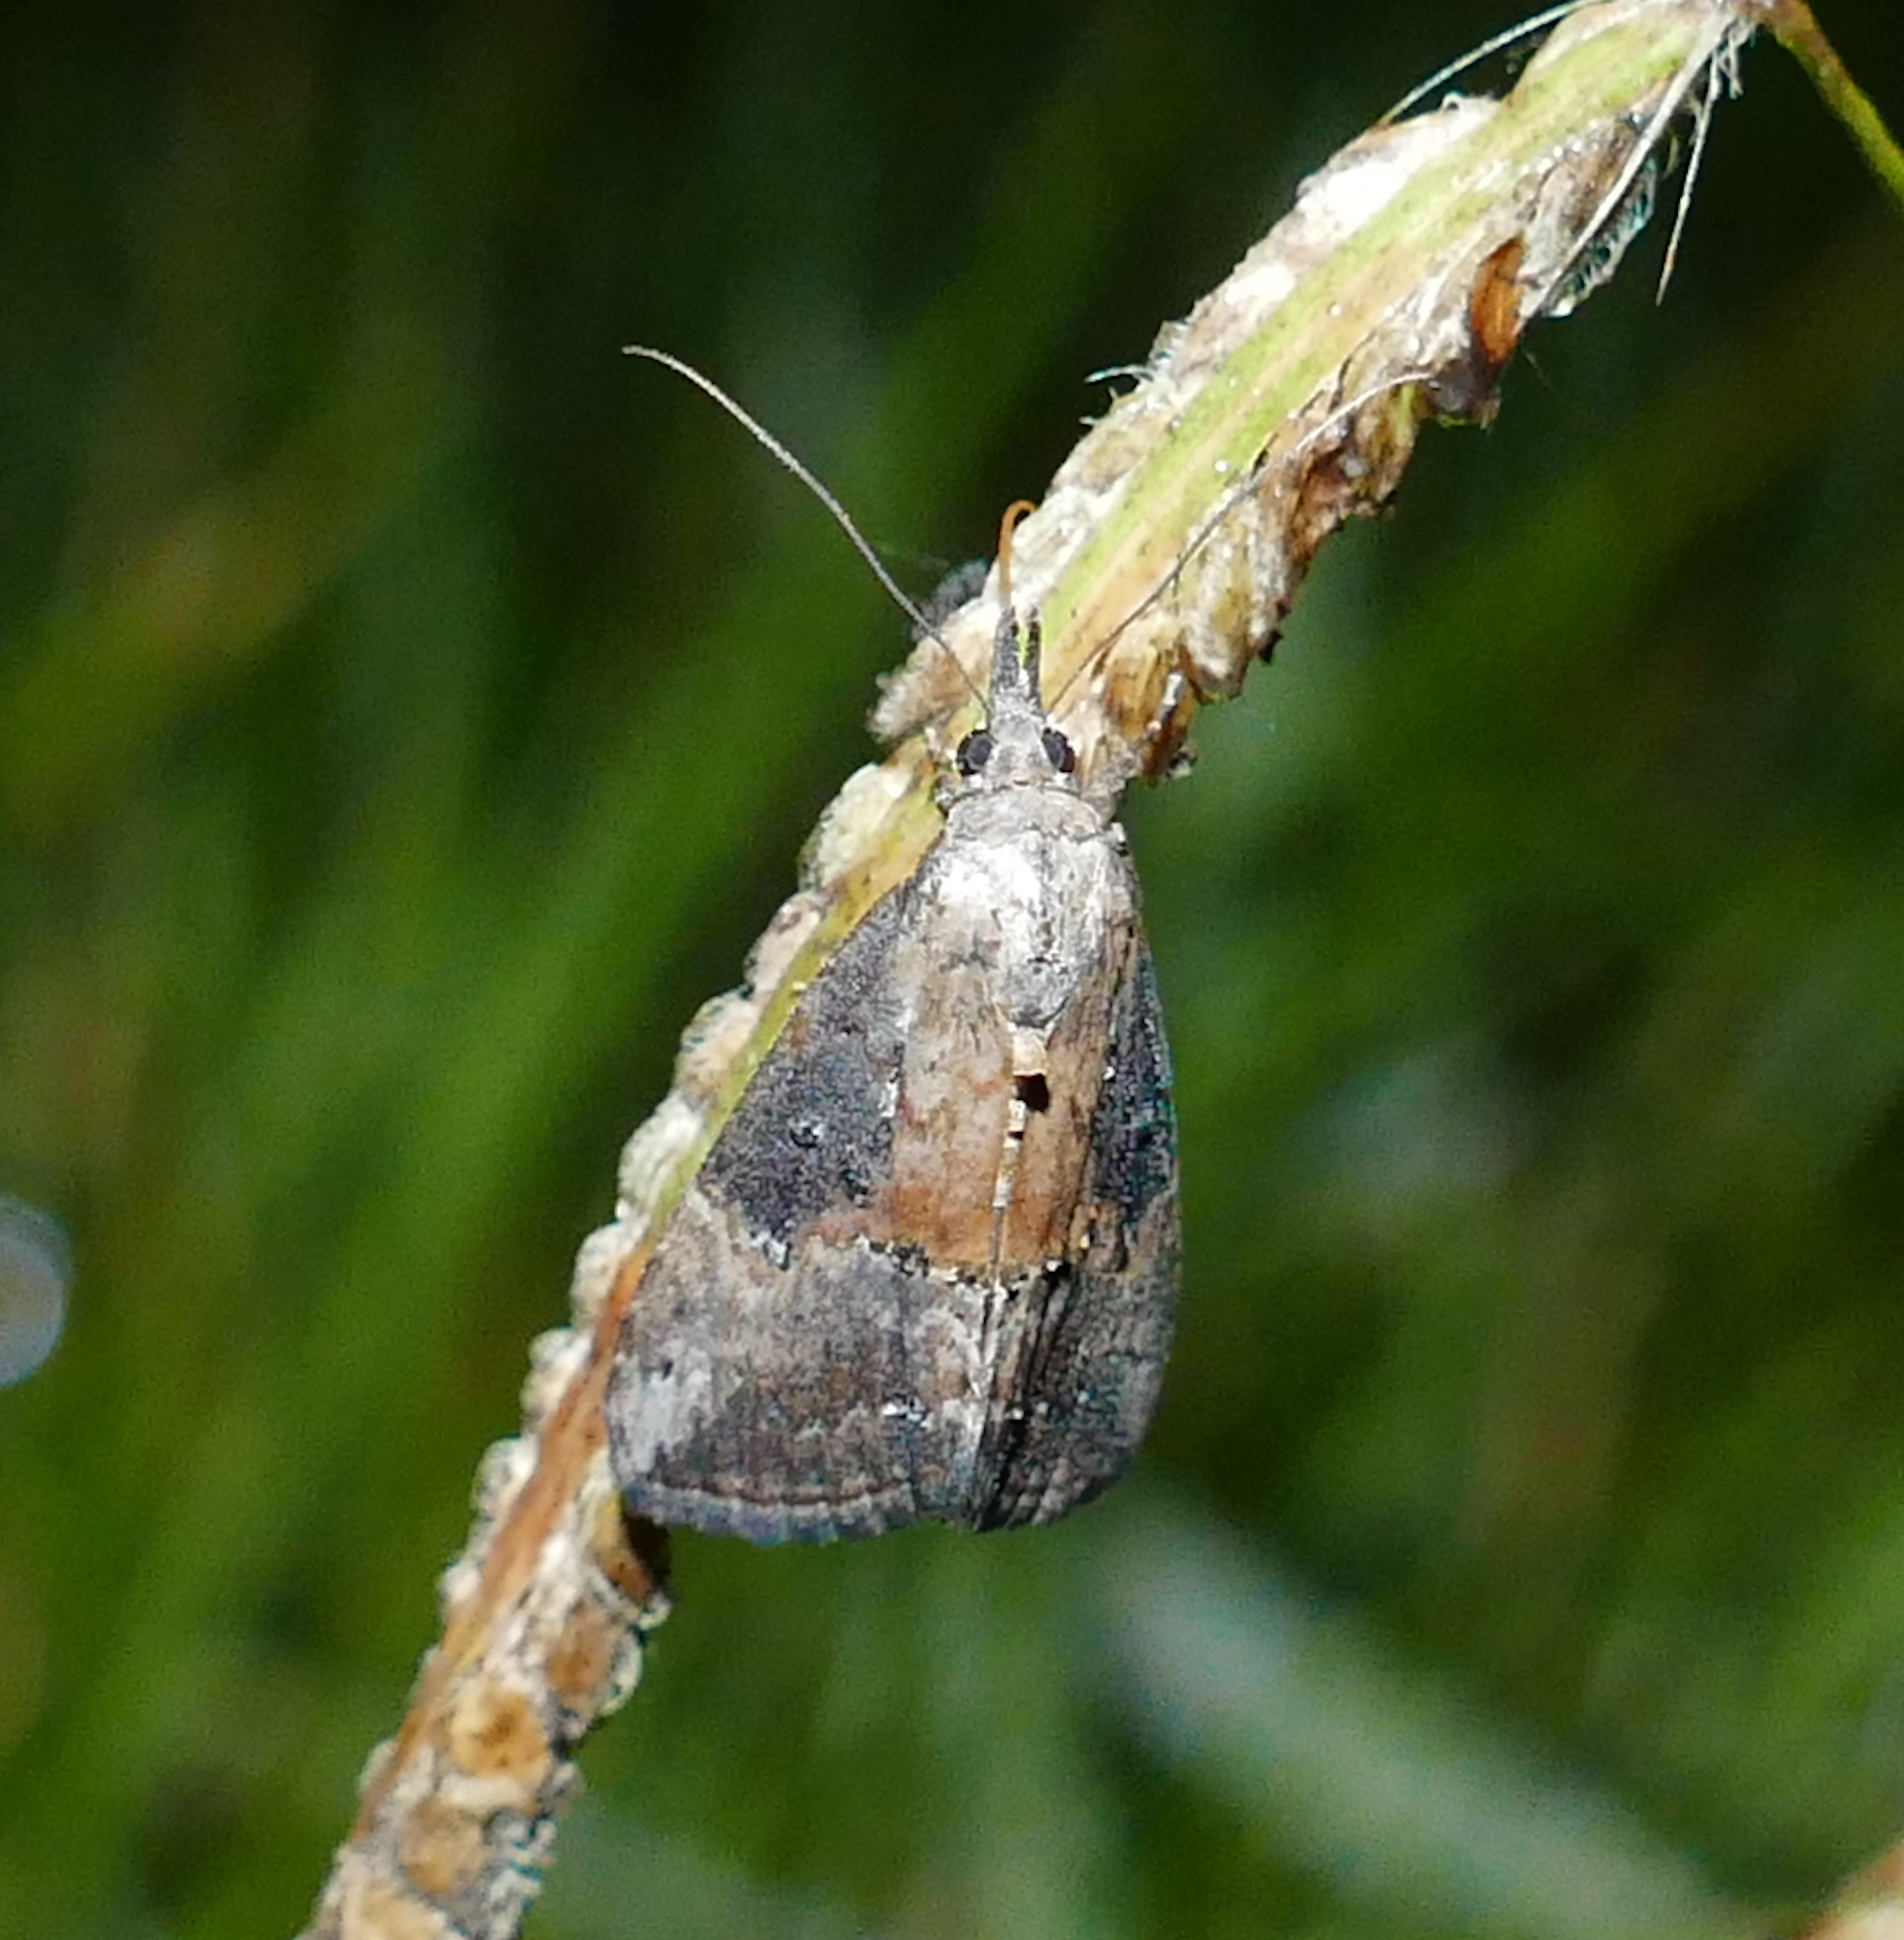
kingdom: Animalia
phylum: Arthropoda
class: Insecta
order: Lepidoptera
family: Erebidae
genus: Hypena
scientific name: Hypena scabra
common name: Green cloverworm
